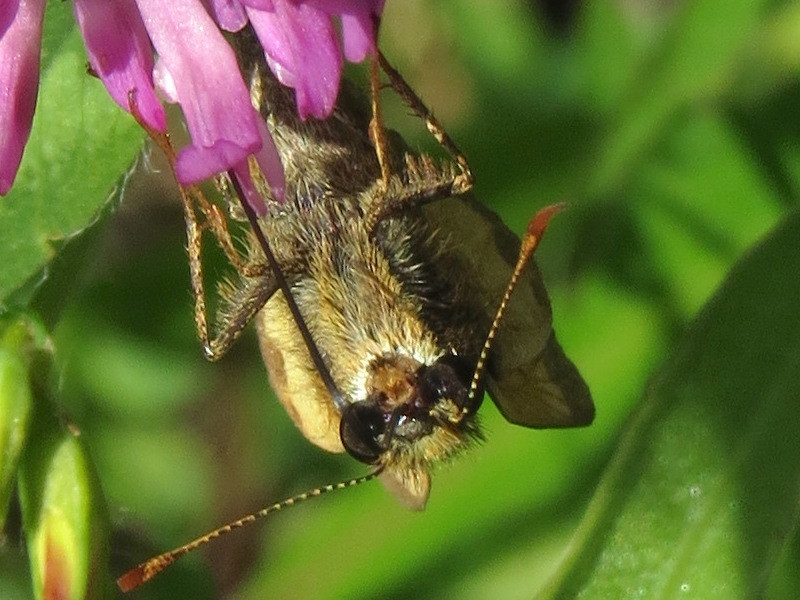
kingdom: Animalia
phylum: Arthropoda
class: Insecta
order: Lepidoptera
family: Hesperiidae
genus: Lon
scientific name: Lon hobomok
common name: Hobomok skipper
